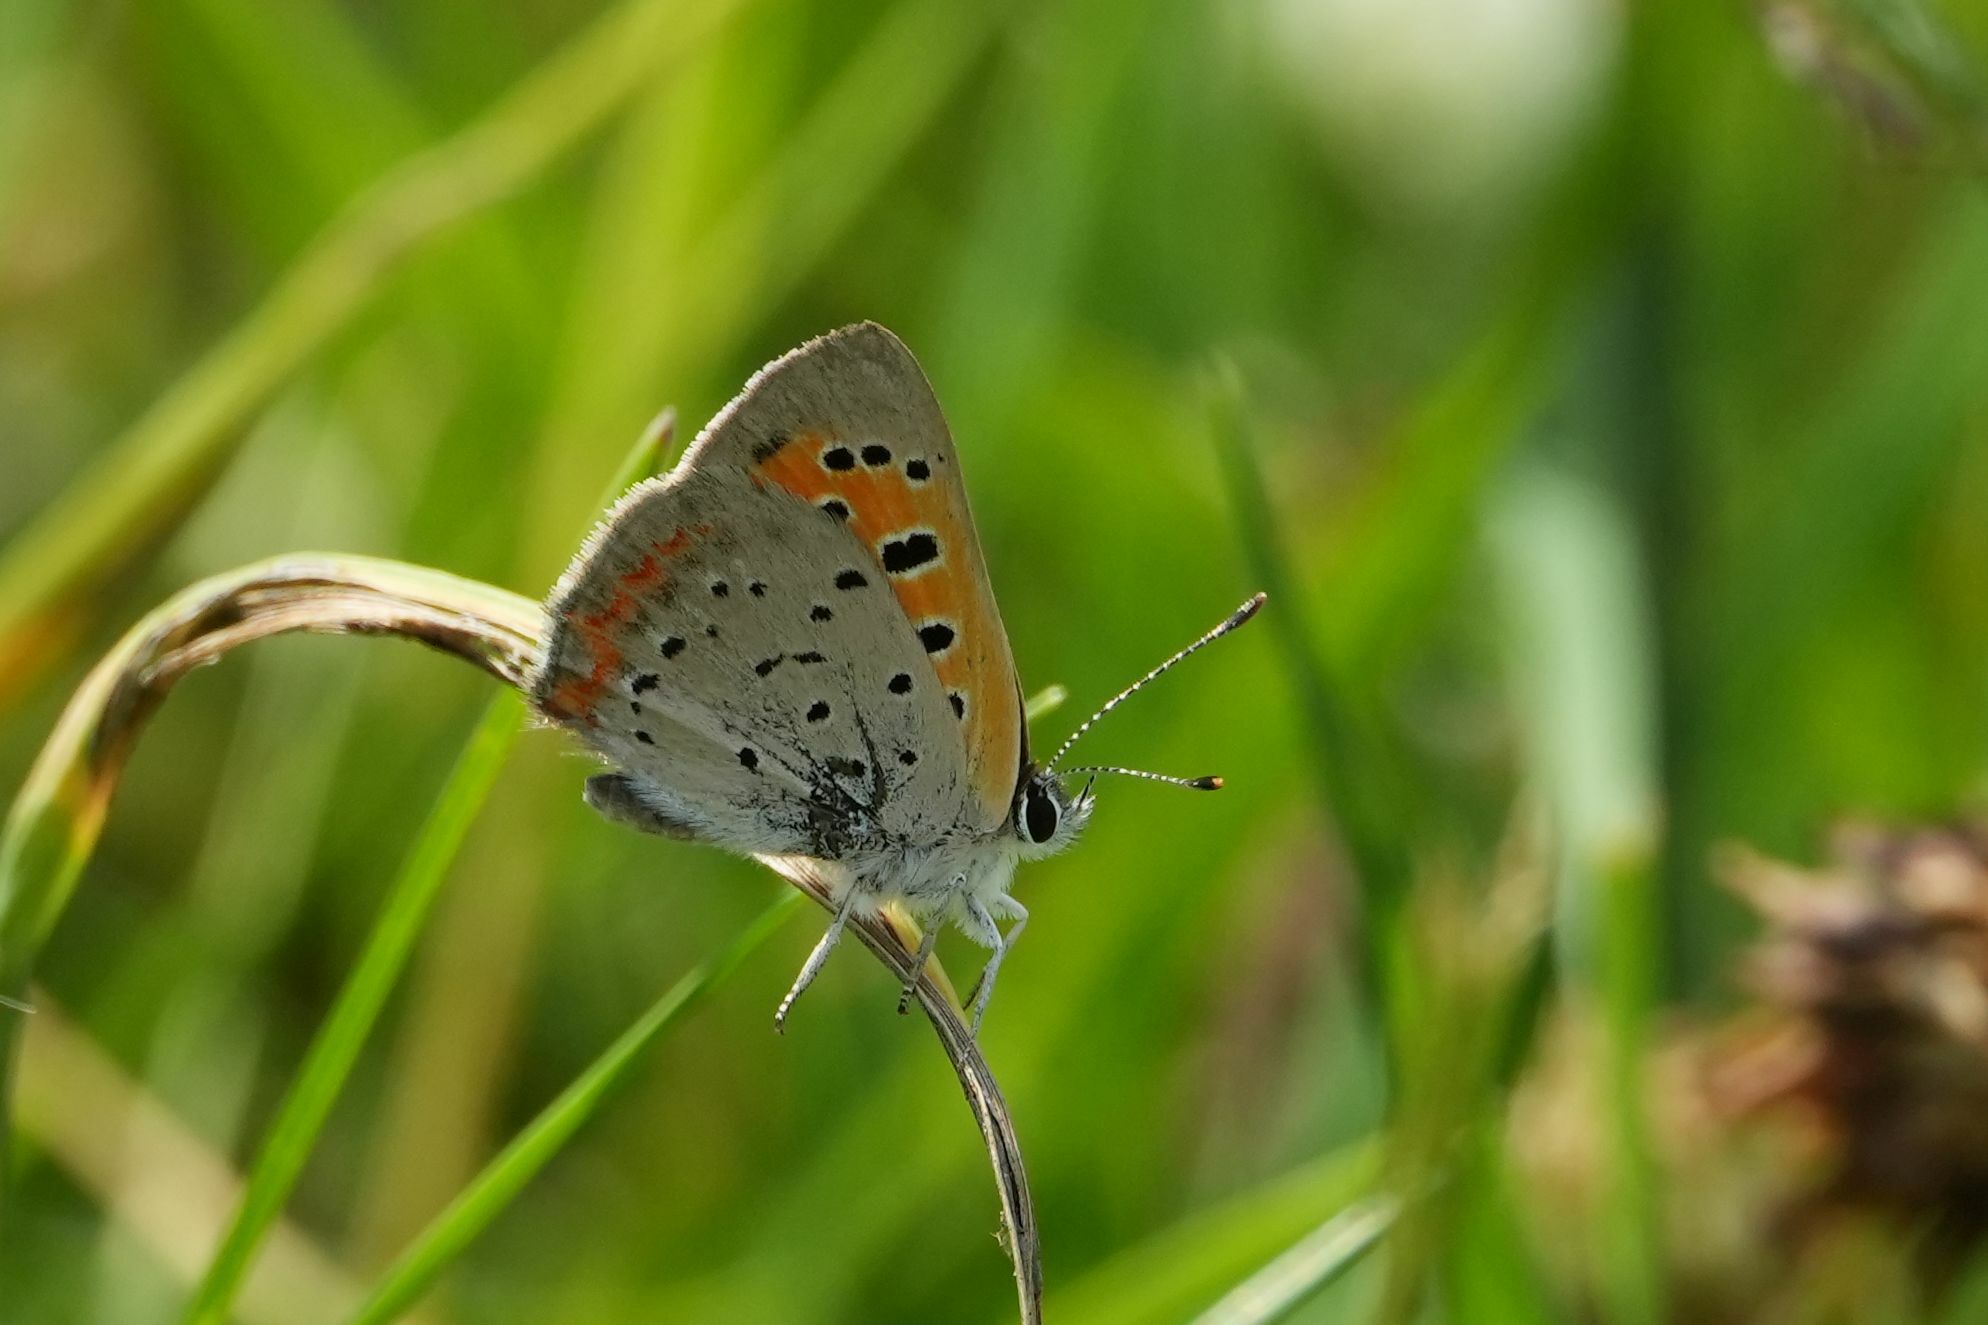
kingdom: Animalia
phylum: Arthropoda
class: Insecta
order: Lepidoptera
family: Lycaenidae
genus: Lycaena
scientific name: Lycaena hypophlaeas
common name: American copper
